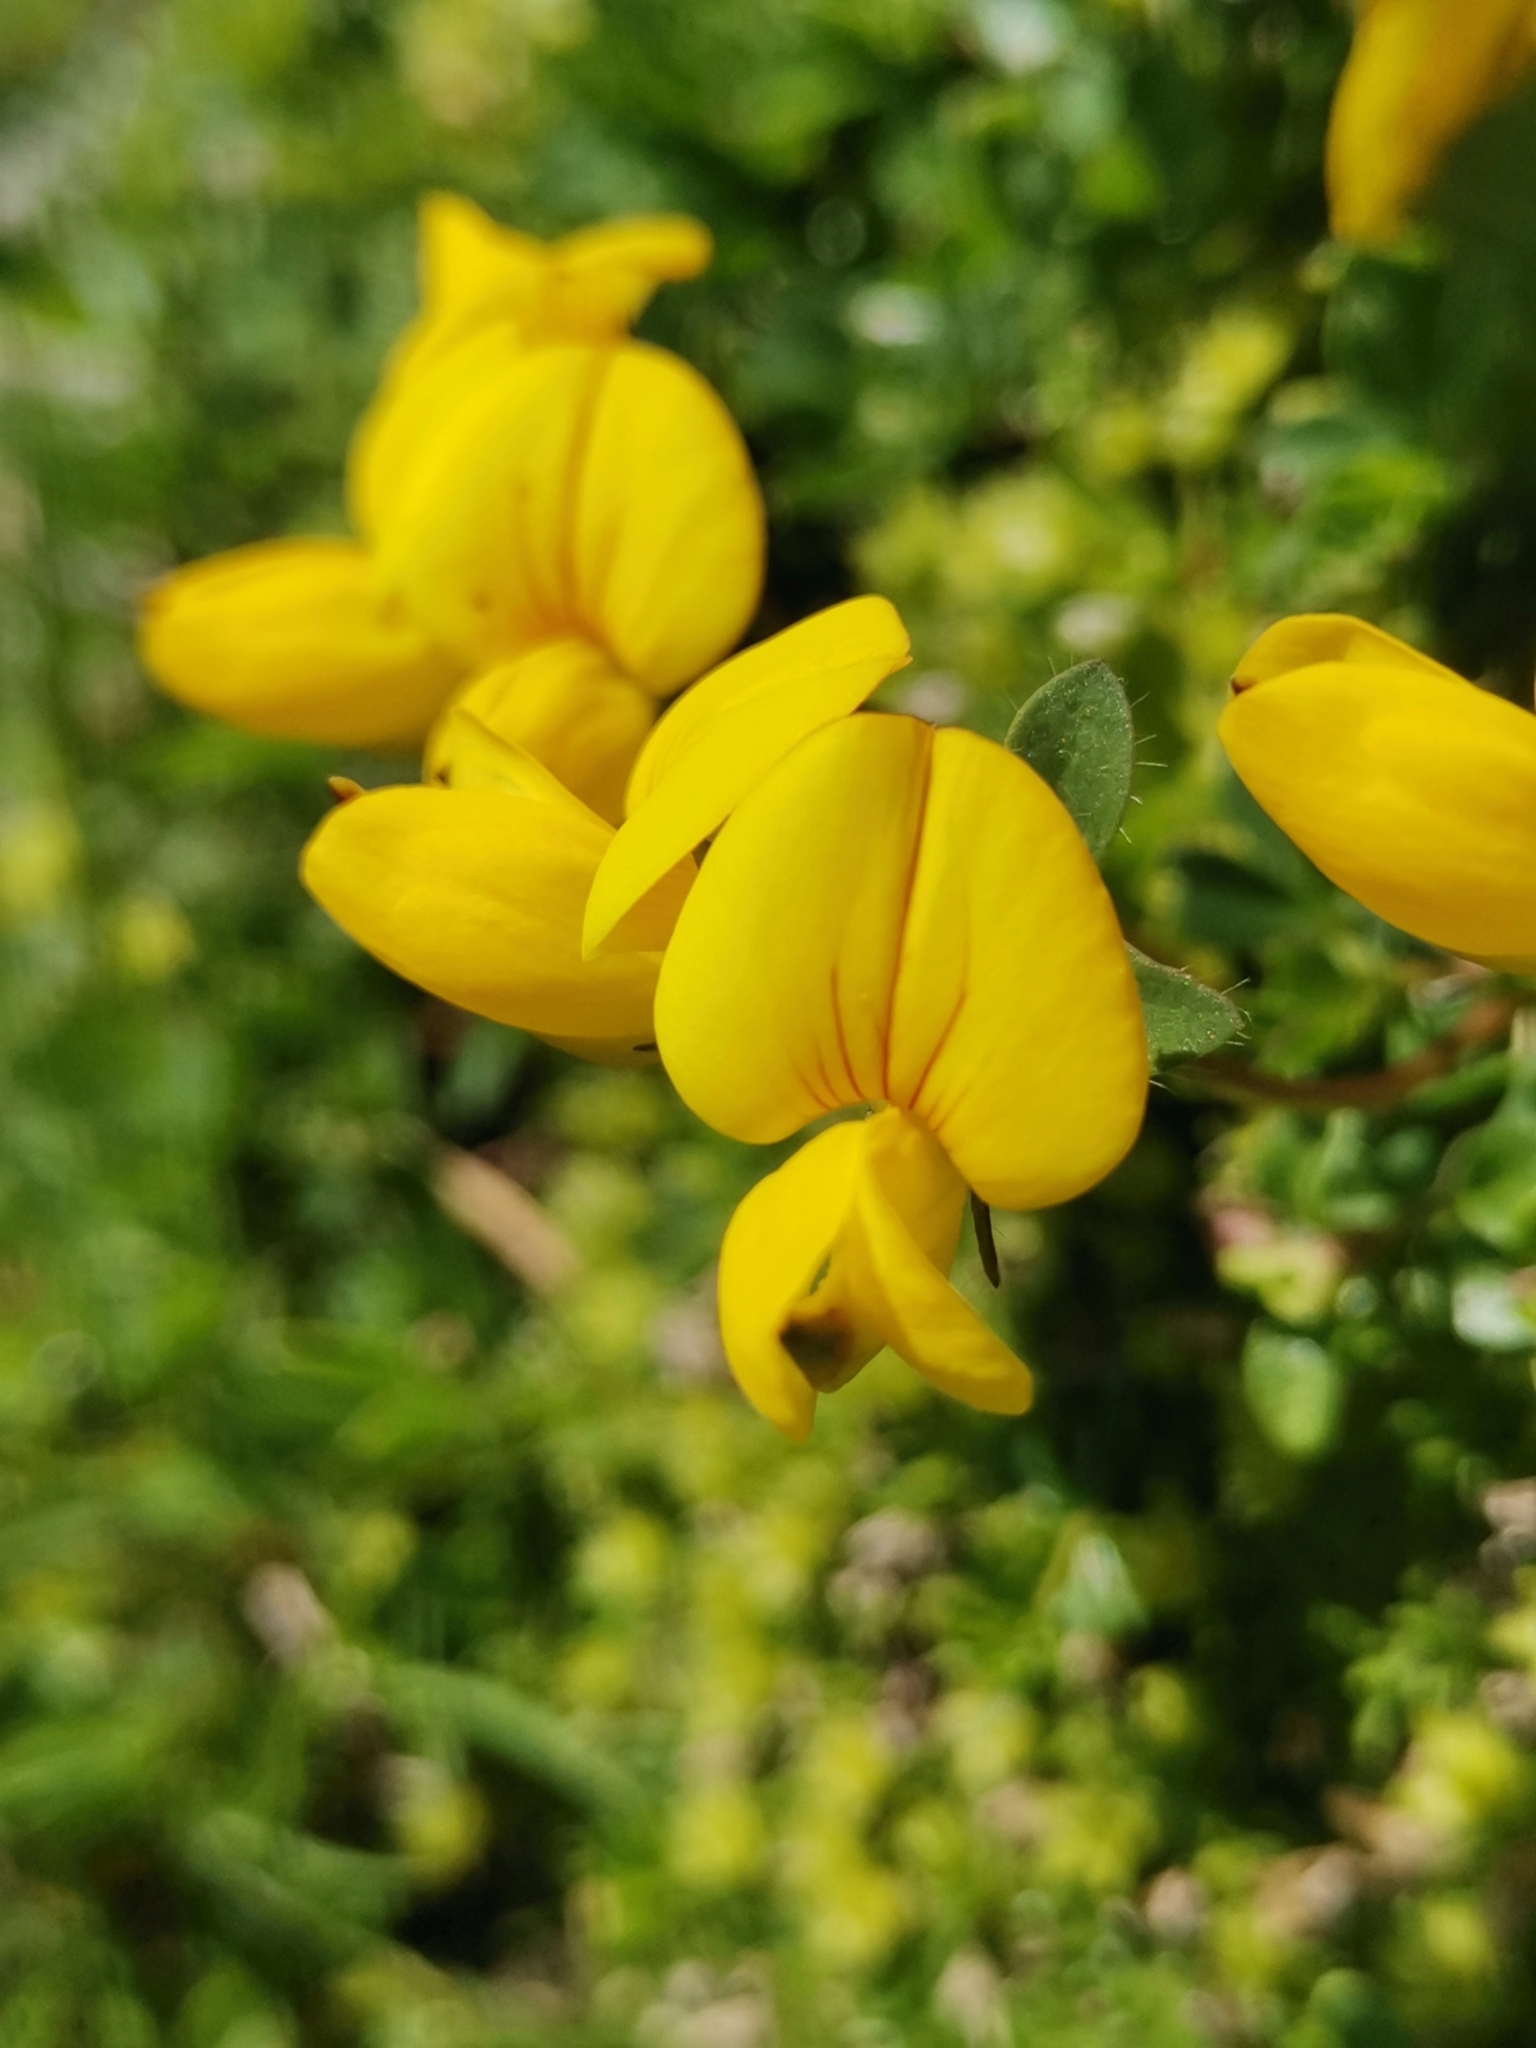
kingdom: Plantae
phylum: Tracheophyta
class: Magnoliopsida
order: Fabales
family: Fabaceae
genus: Lotus
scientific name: Lotus alpinus
